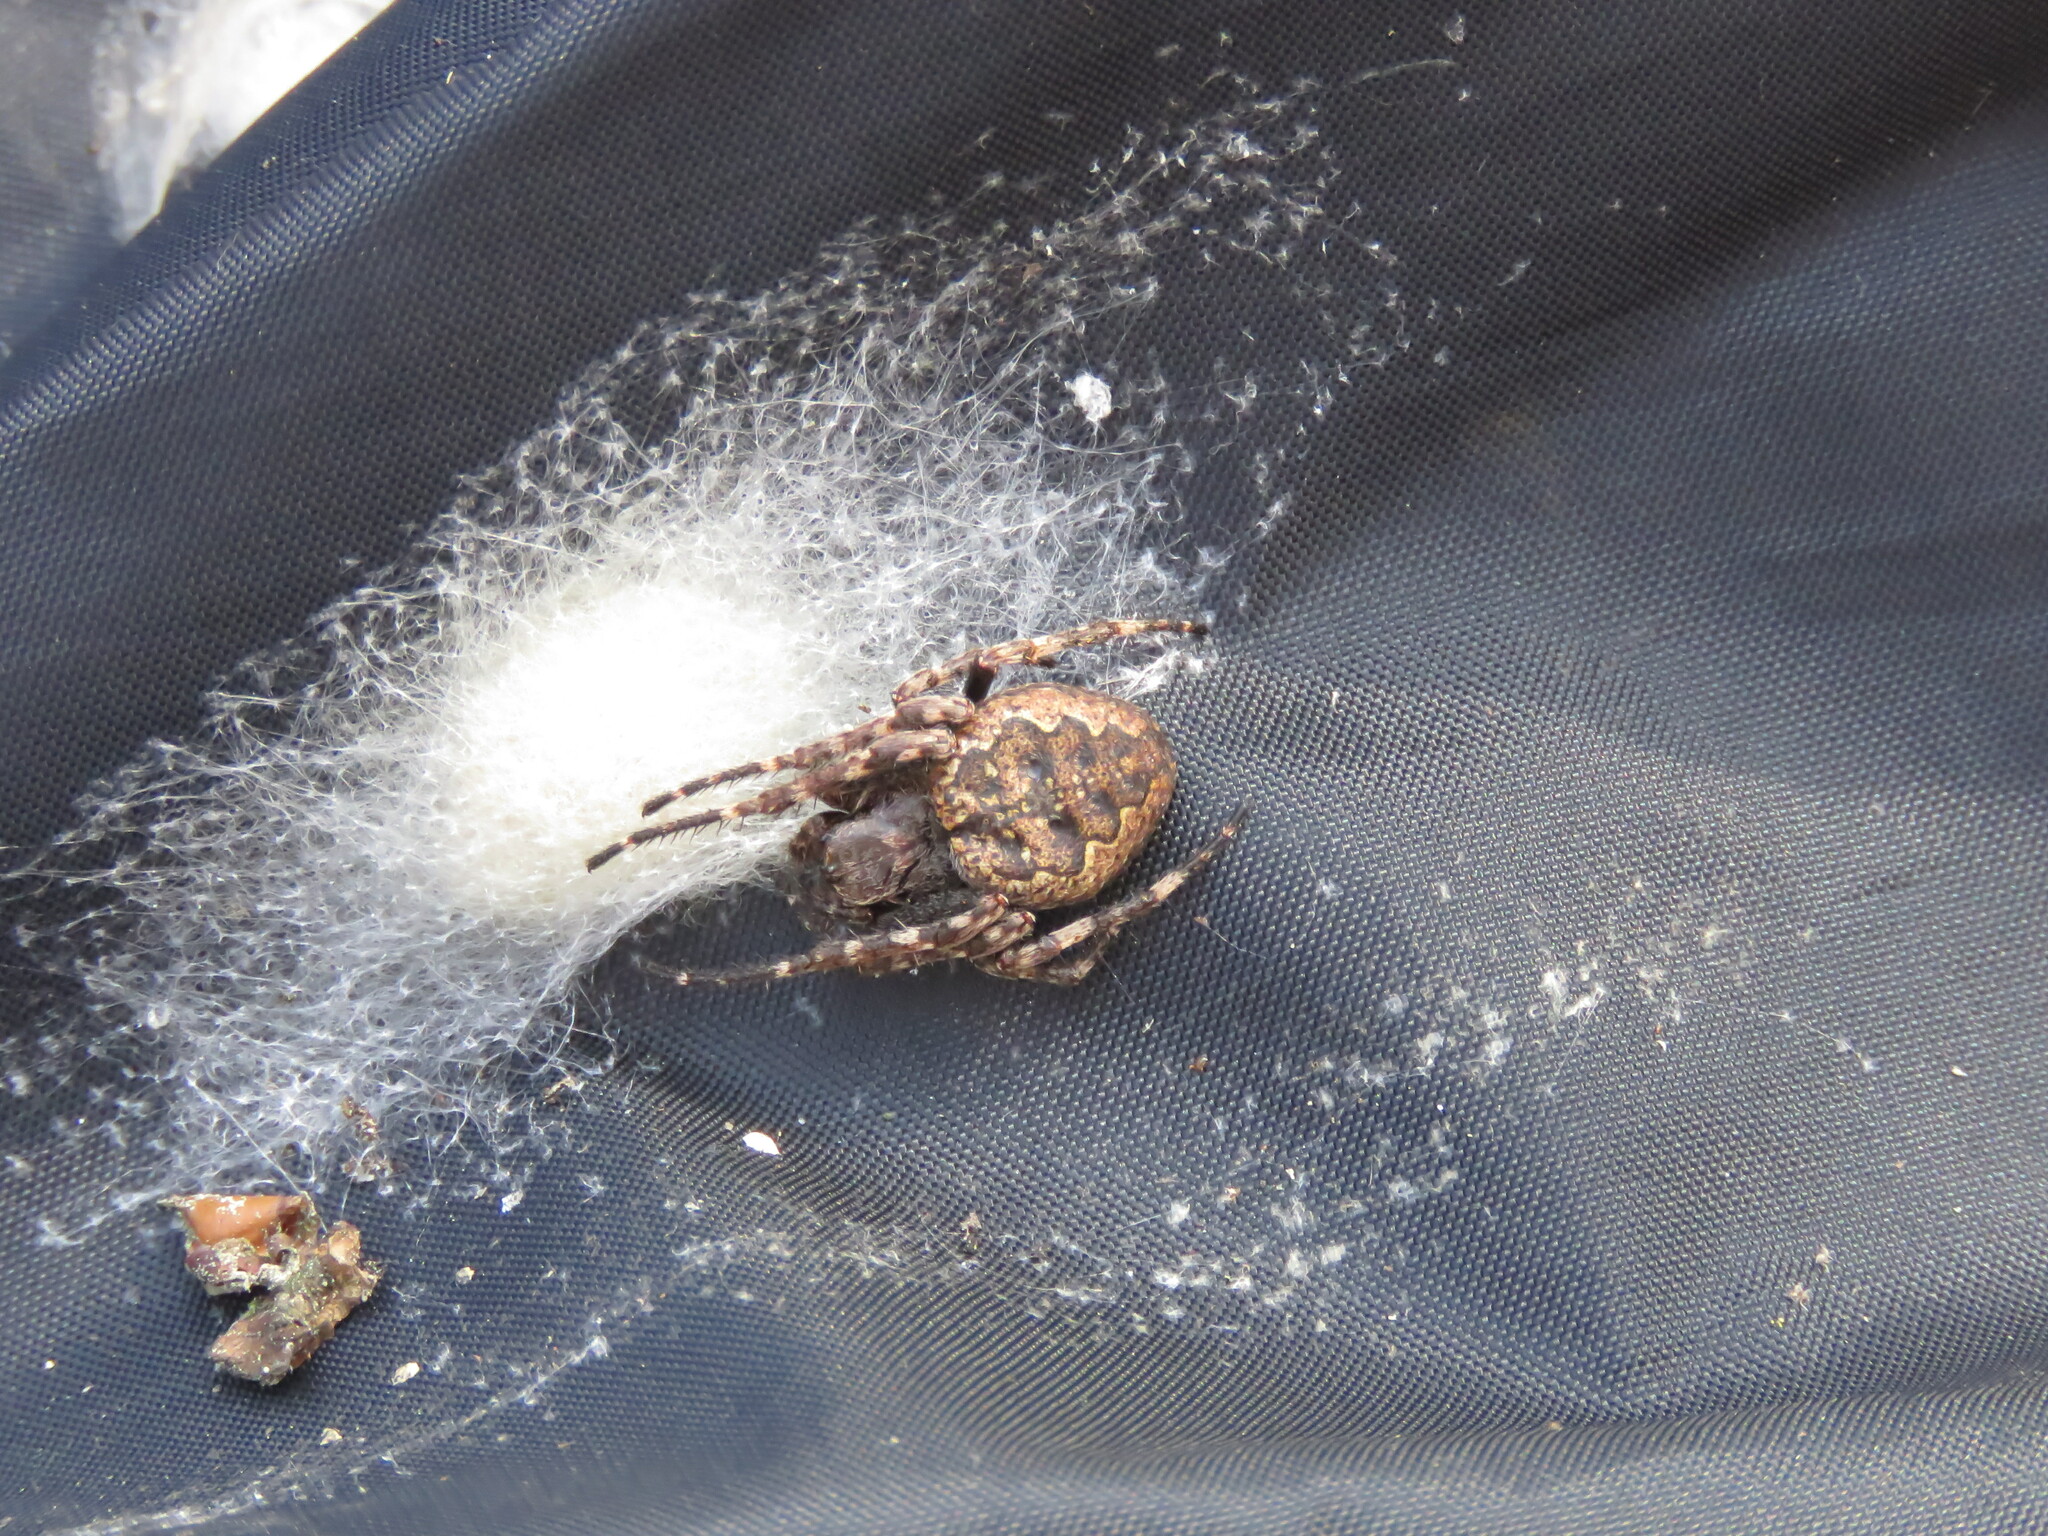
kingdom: Animalia
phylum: Arthropoda
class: Arachnida
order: Araneae
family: Araneidae
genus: Nuctenea
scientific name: Nuctenea umbratica
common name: Toad spider
